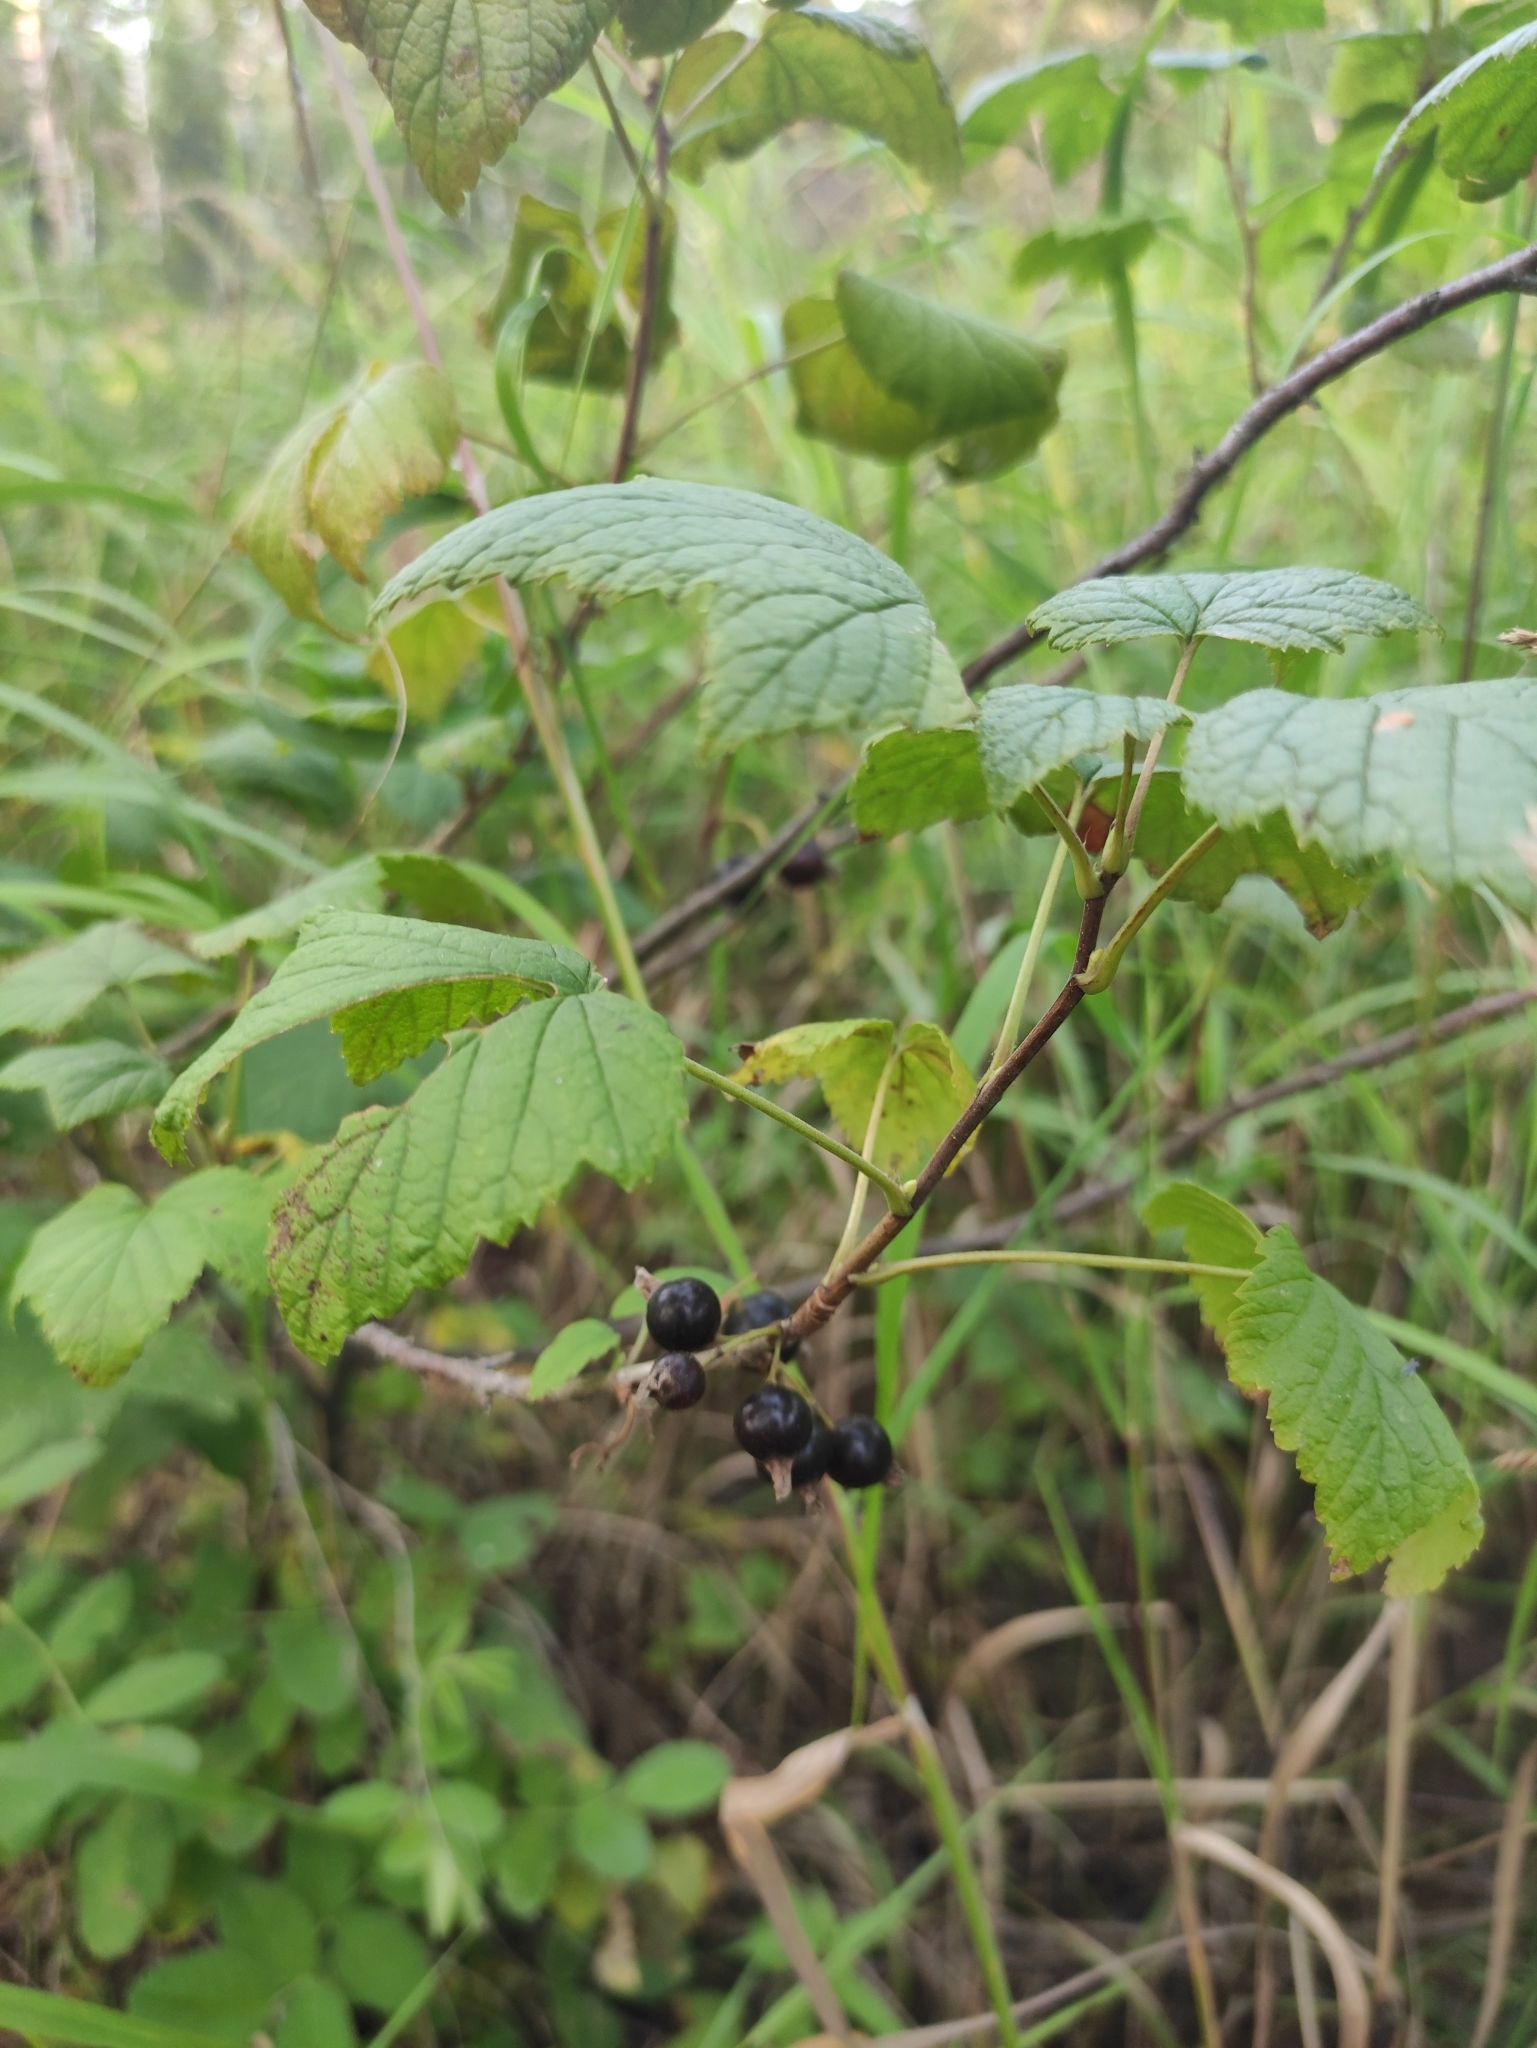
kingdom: Plantae
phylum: Tracheophyta
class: Magnoliopsida
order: Saxifragales
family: Grossulariaceae
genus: Ribes
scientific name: Ribes nigrum
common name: Black currant
